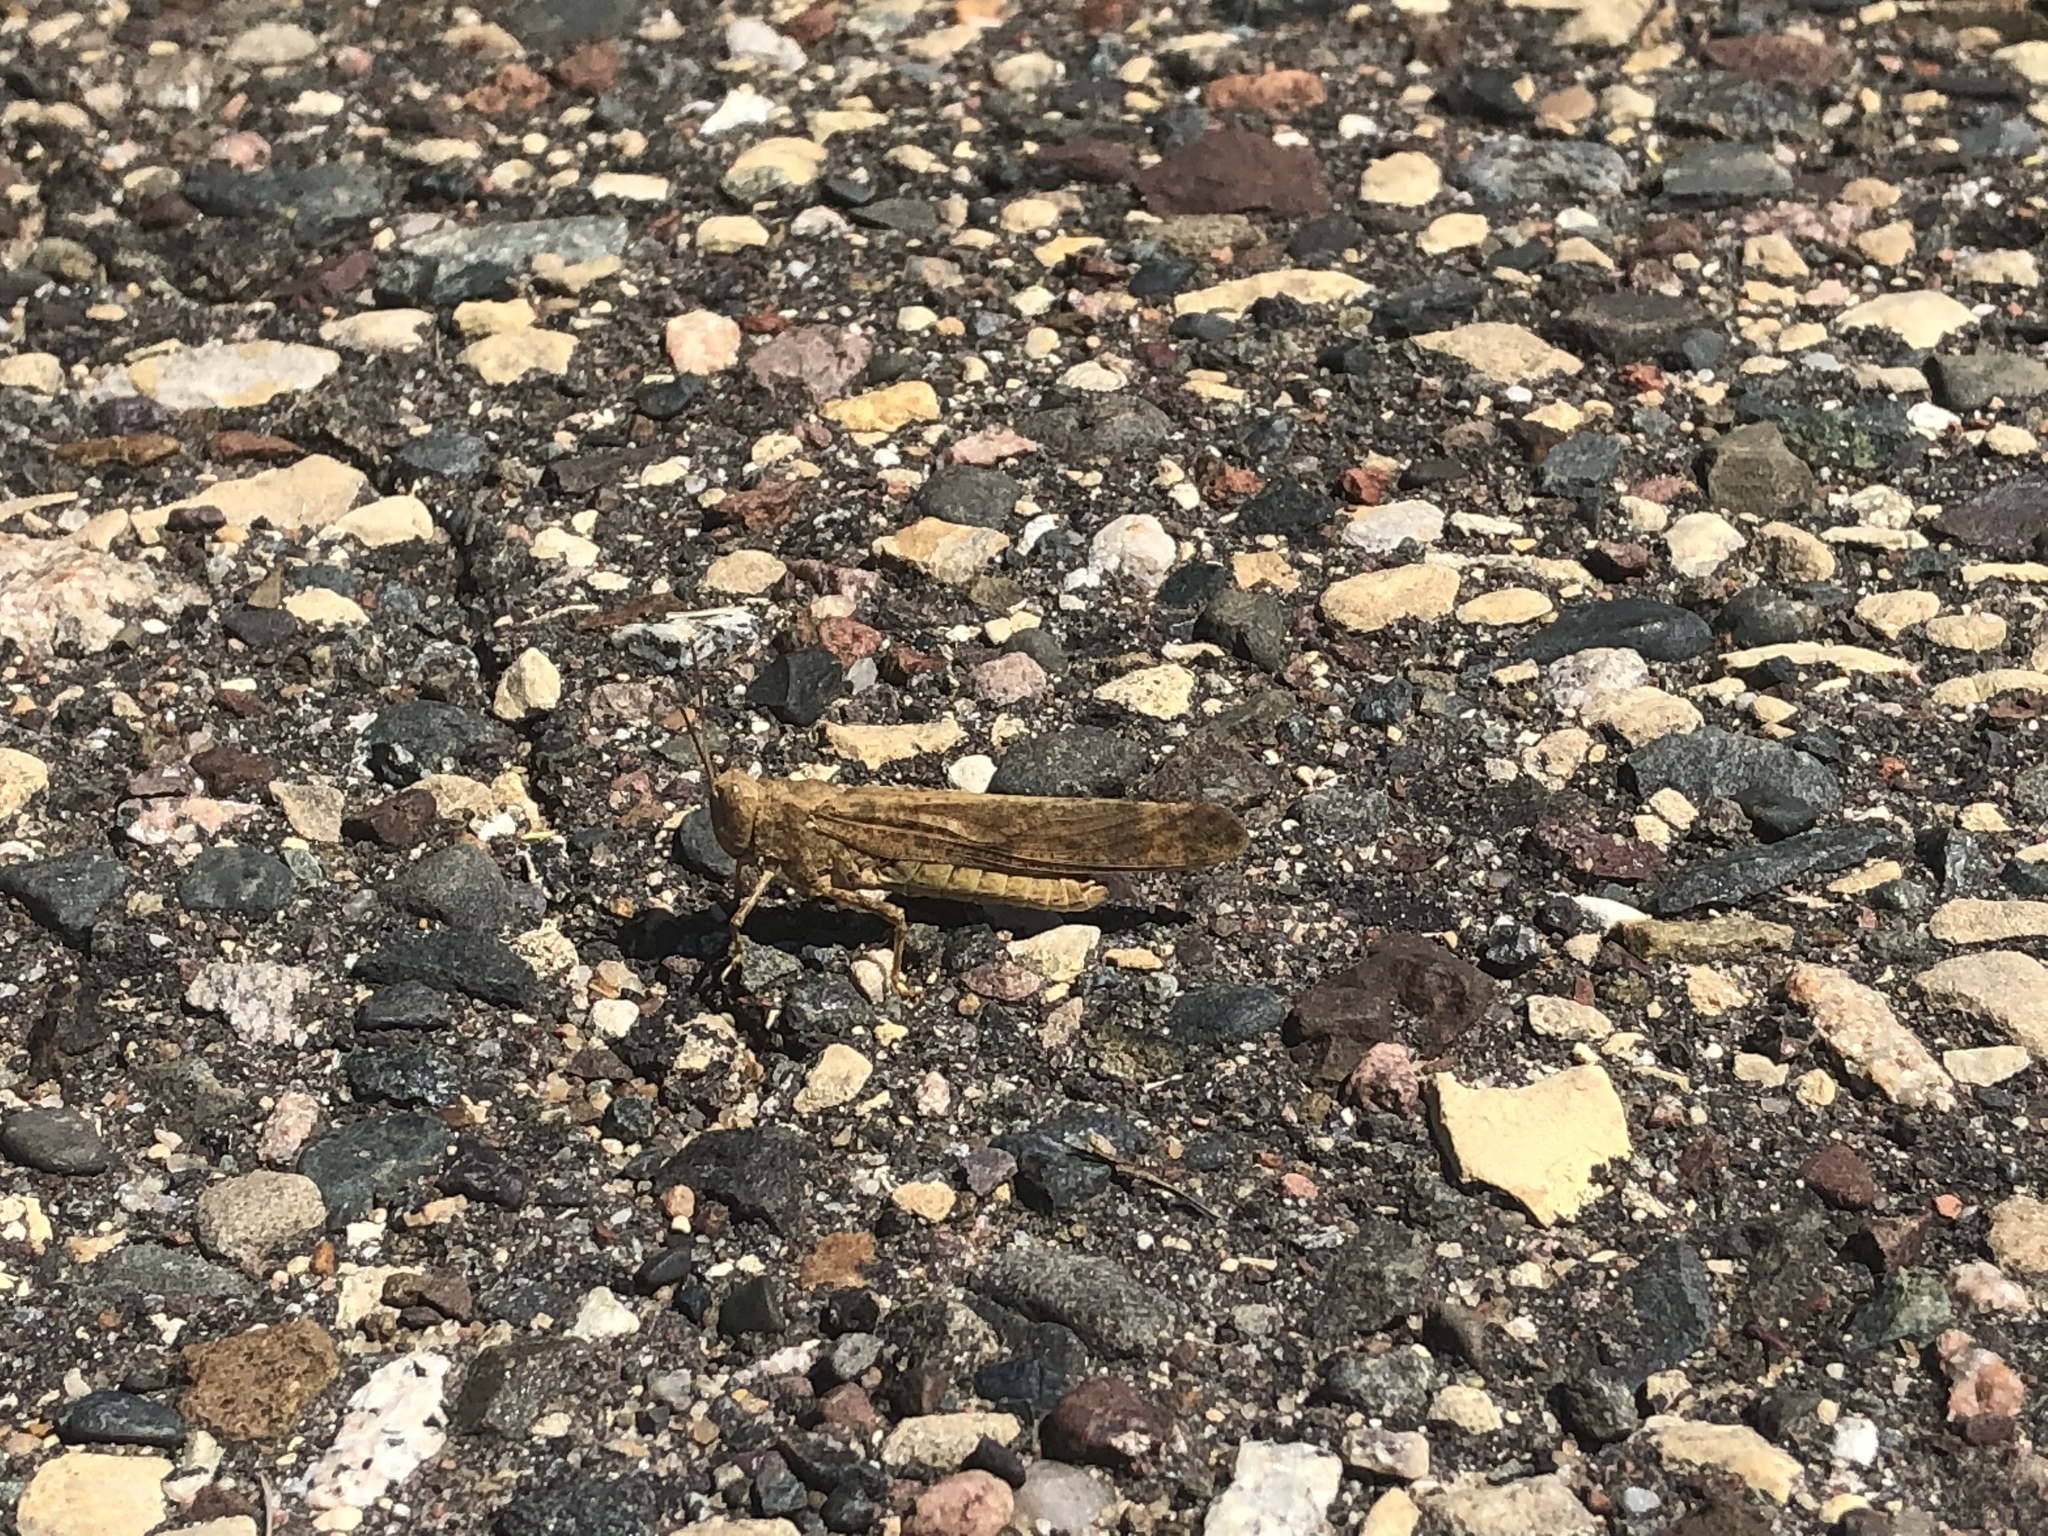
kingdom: Animalia
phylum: Arthropoda
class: Insecta
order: Orthoptera
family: Acrididae
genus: Dissosteira
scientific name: Dissosteira carolina
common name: Carolina grasshopper
